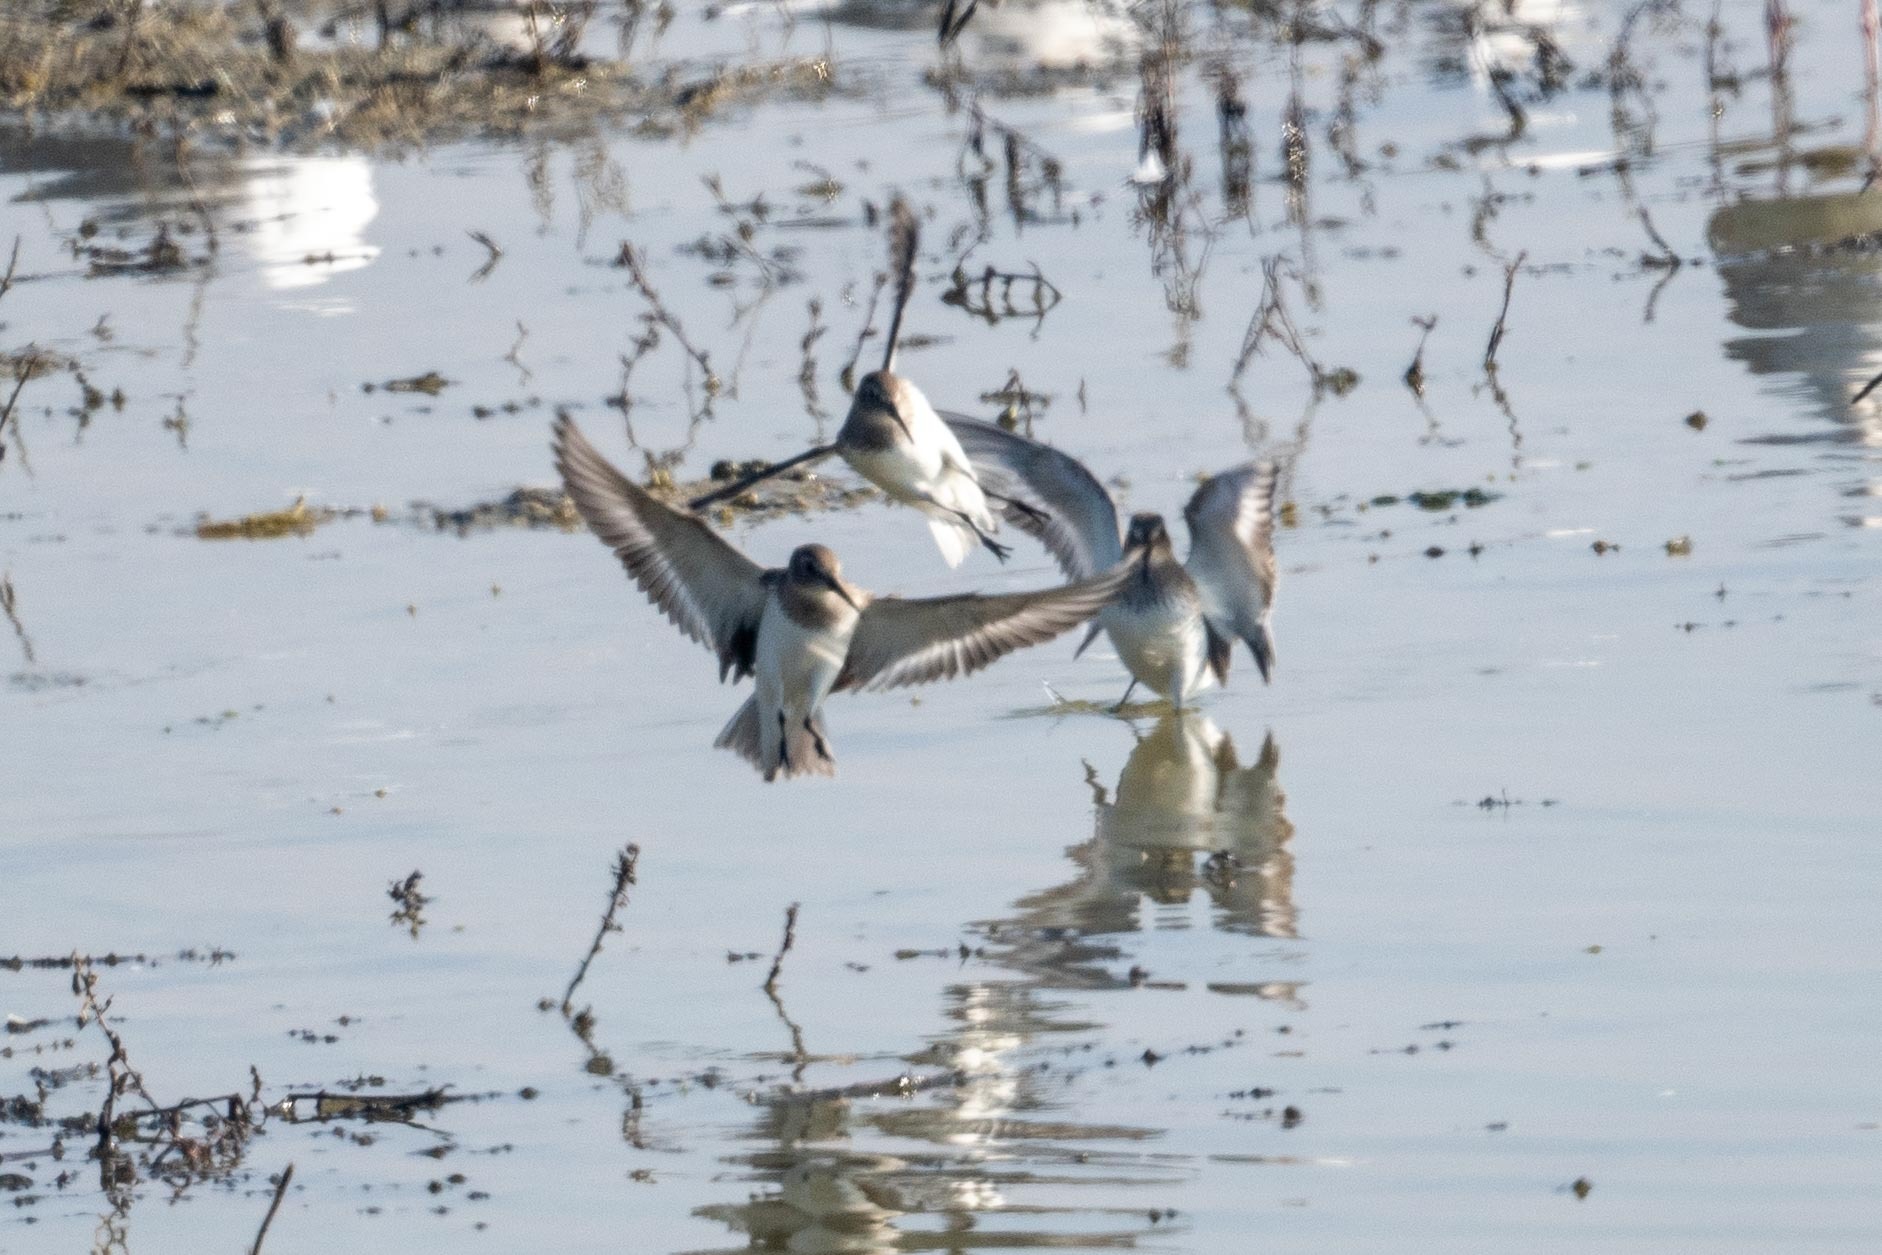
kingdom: Animalia
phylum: Chordata
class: Aves
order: Charadriiformes
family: Scolopacidae
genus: Calidris
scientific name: Calidris alpina
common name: Dunlin
